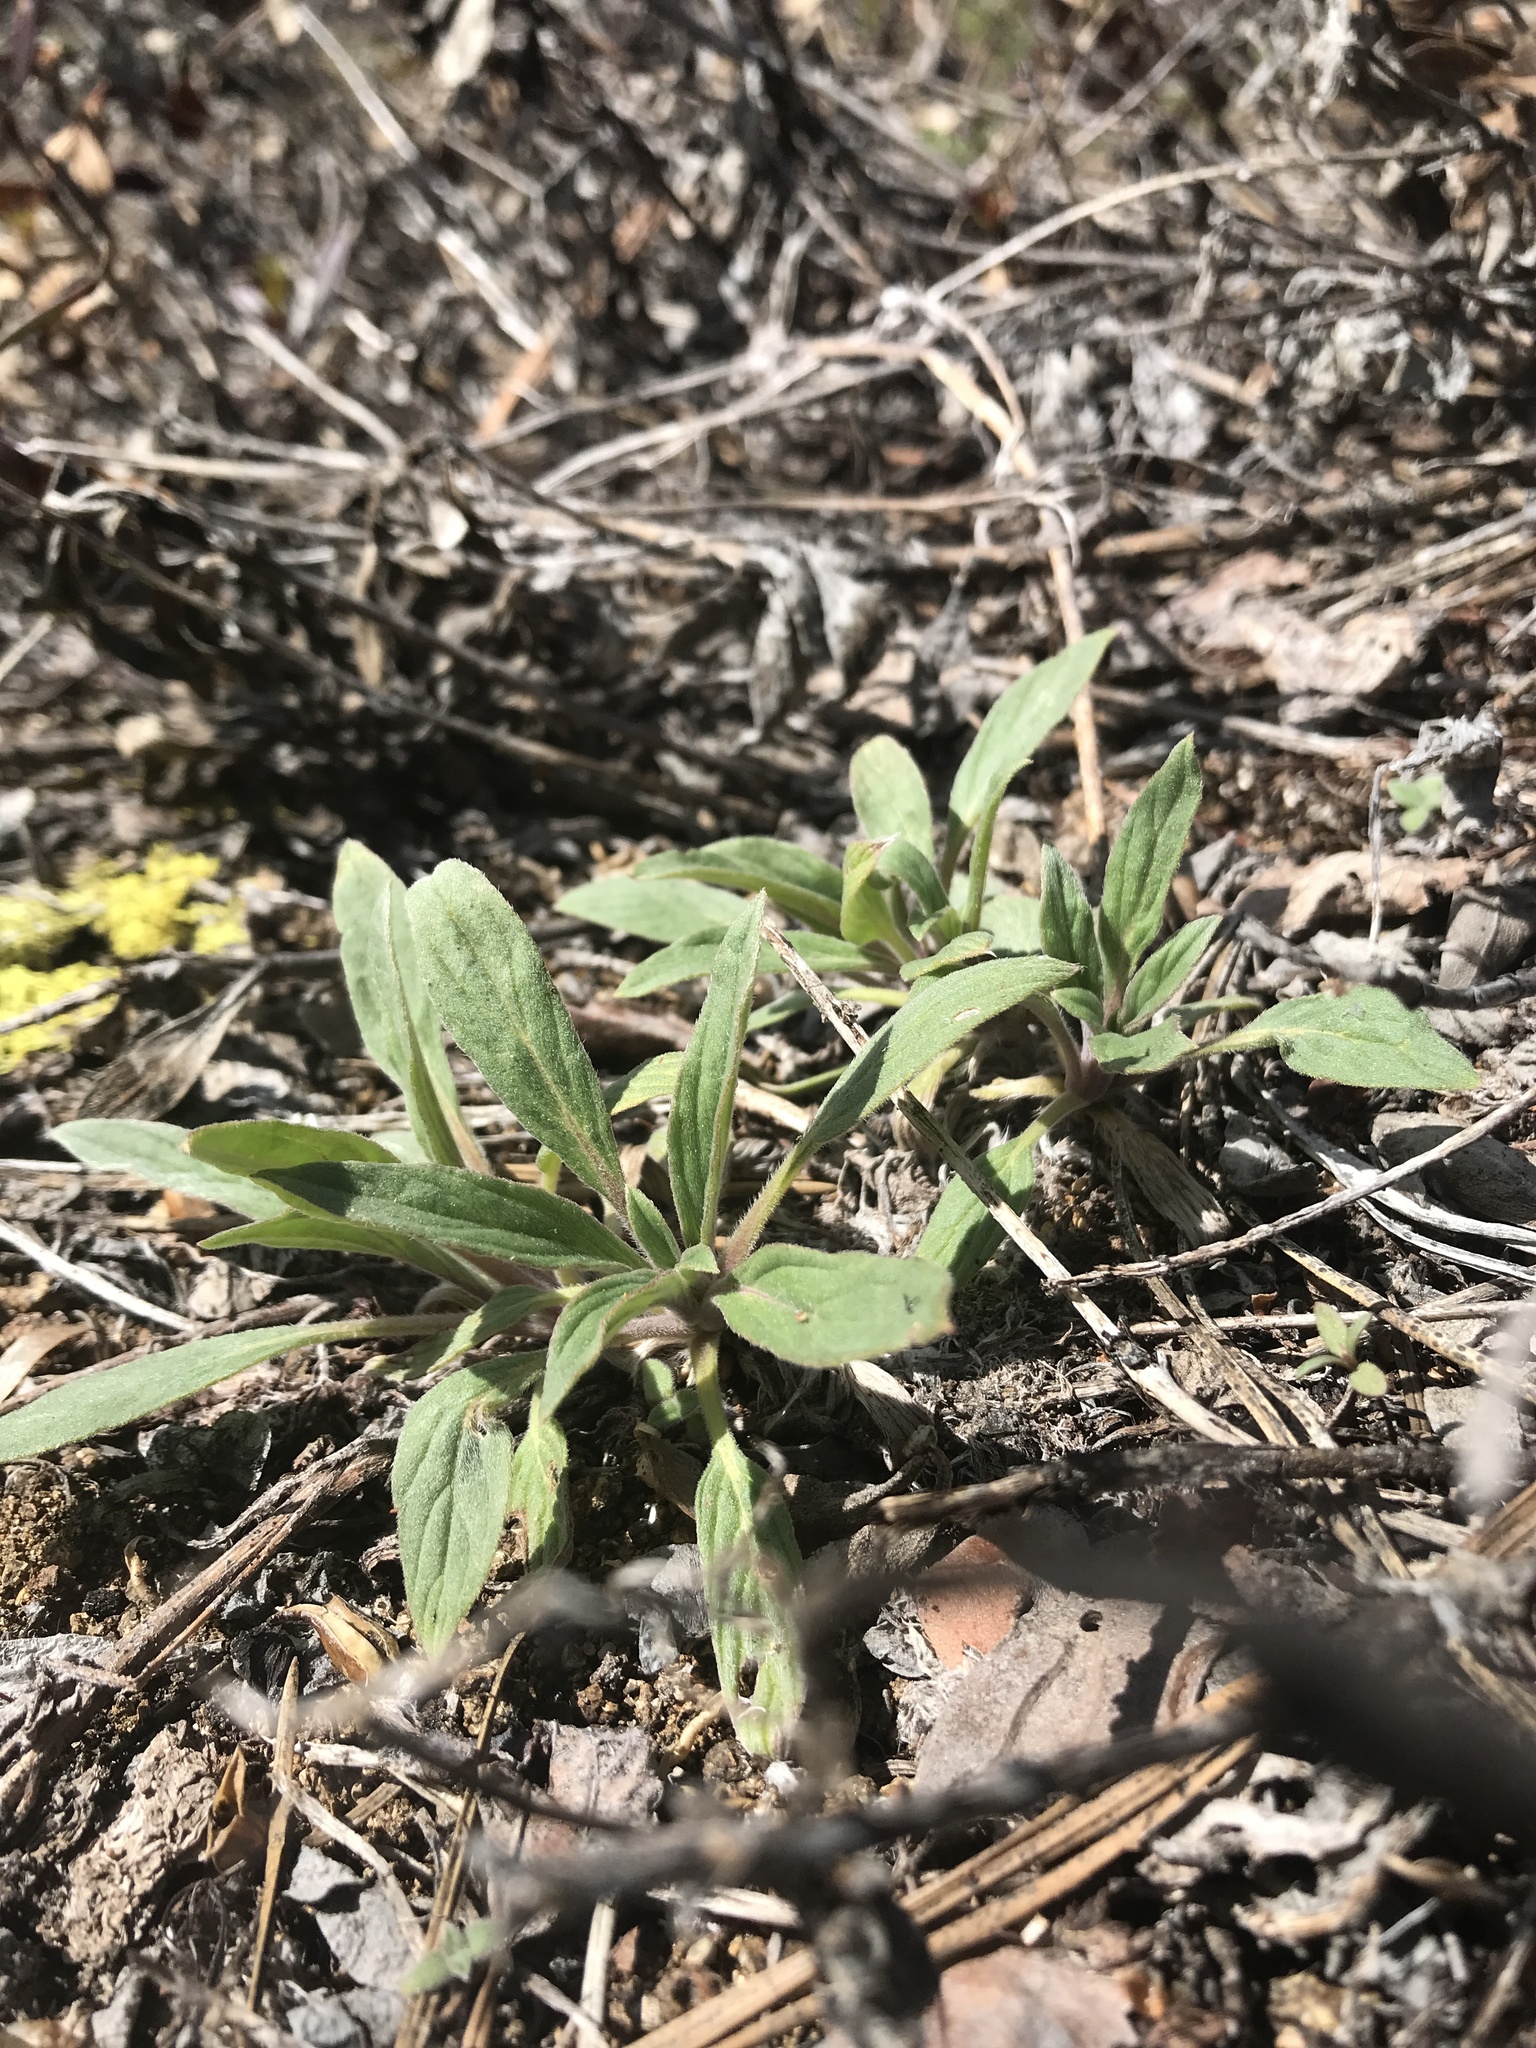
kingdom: Plantae
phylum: Tracheophyta
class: Magnoliopsida
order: Boraginales
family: Hydrophyllaceae
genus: Phacelia
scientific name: Phacelia hastata
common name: Silver-leaved phacelia
